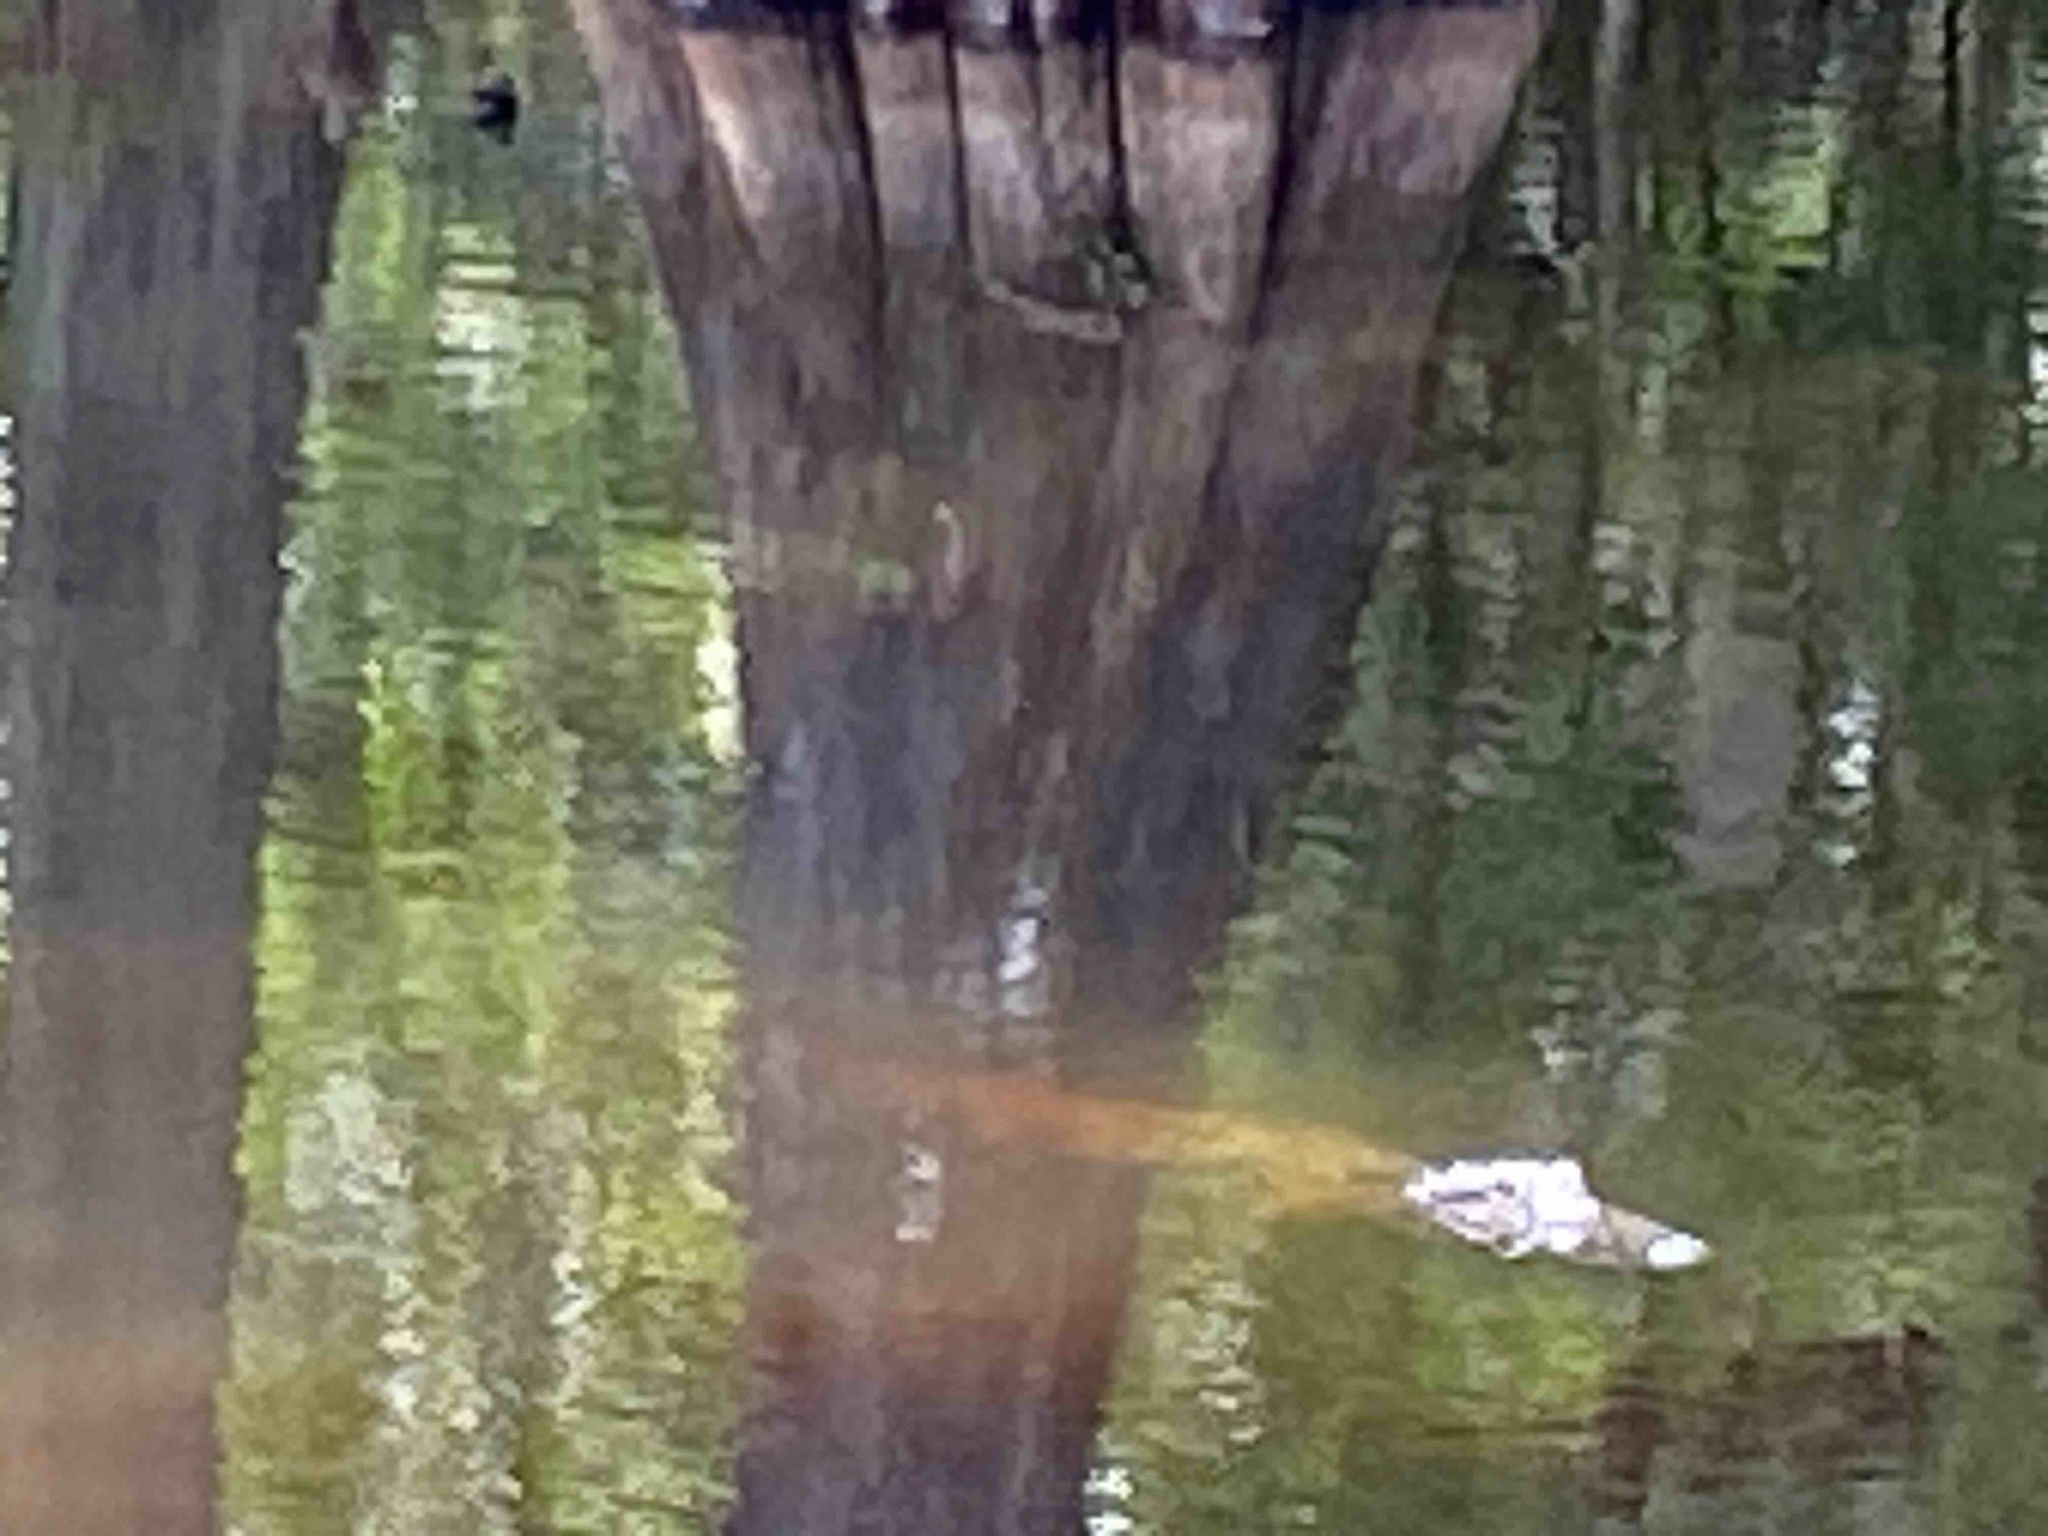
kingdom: Animalia
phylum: Chordata
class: Crocodylia
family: Alligatoridae
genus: Alligator
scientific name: Alligator mississippiensis
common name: American alligator
